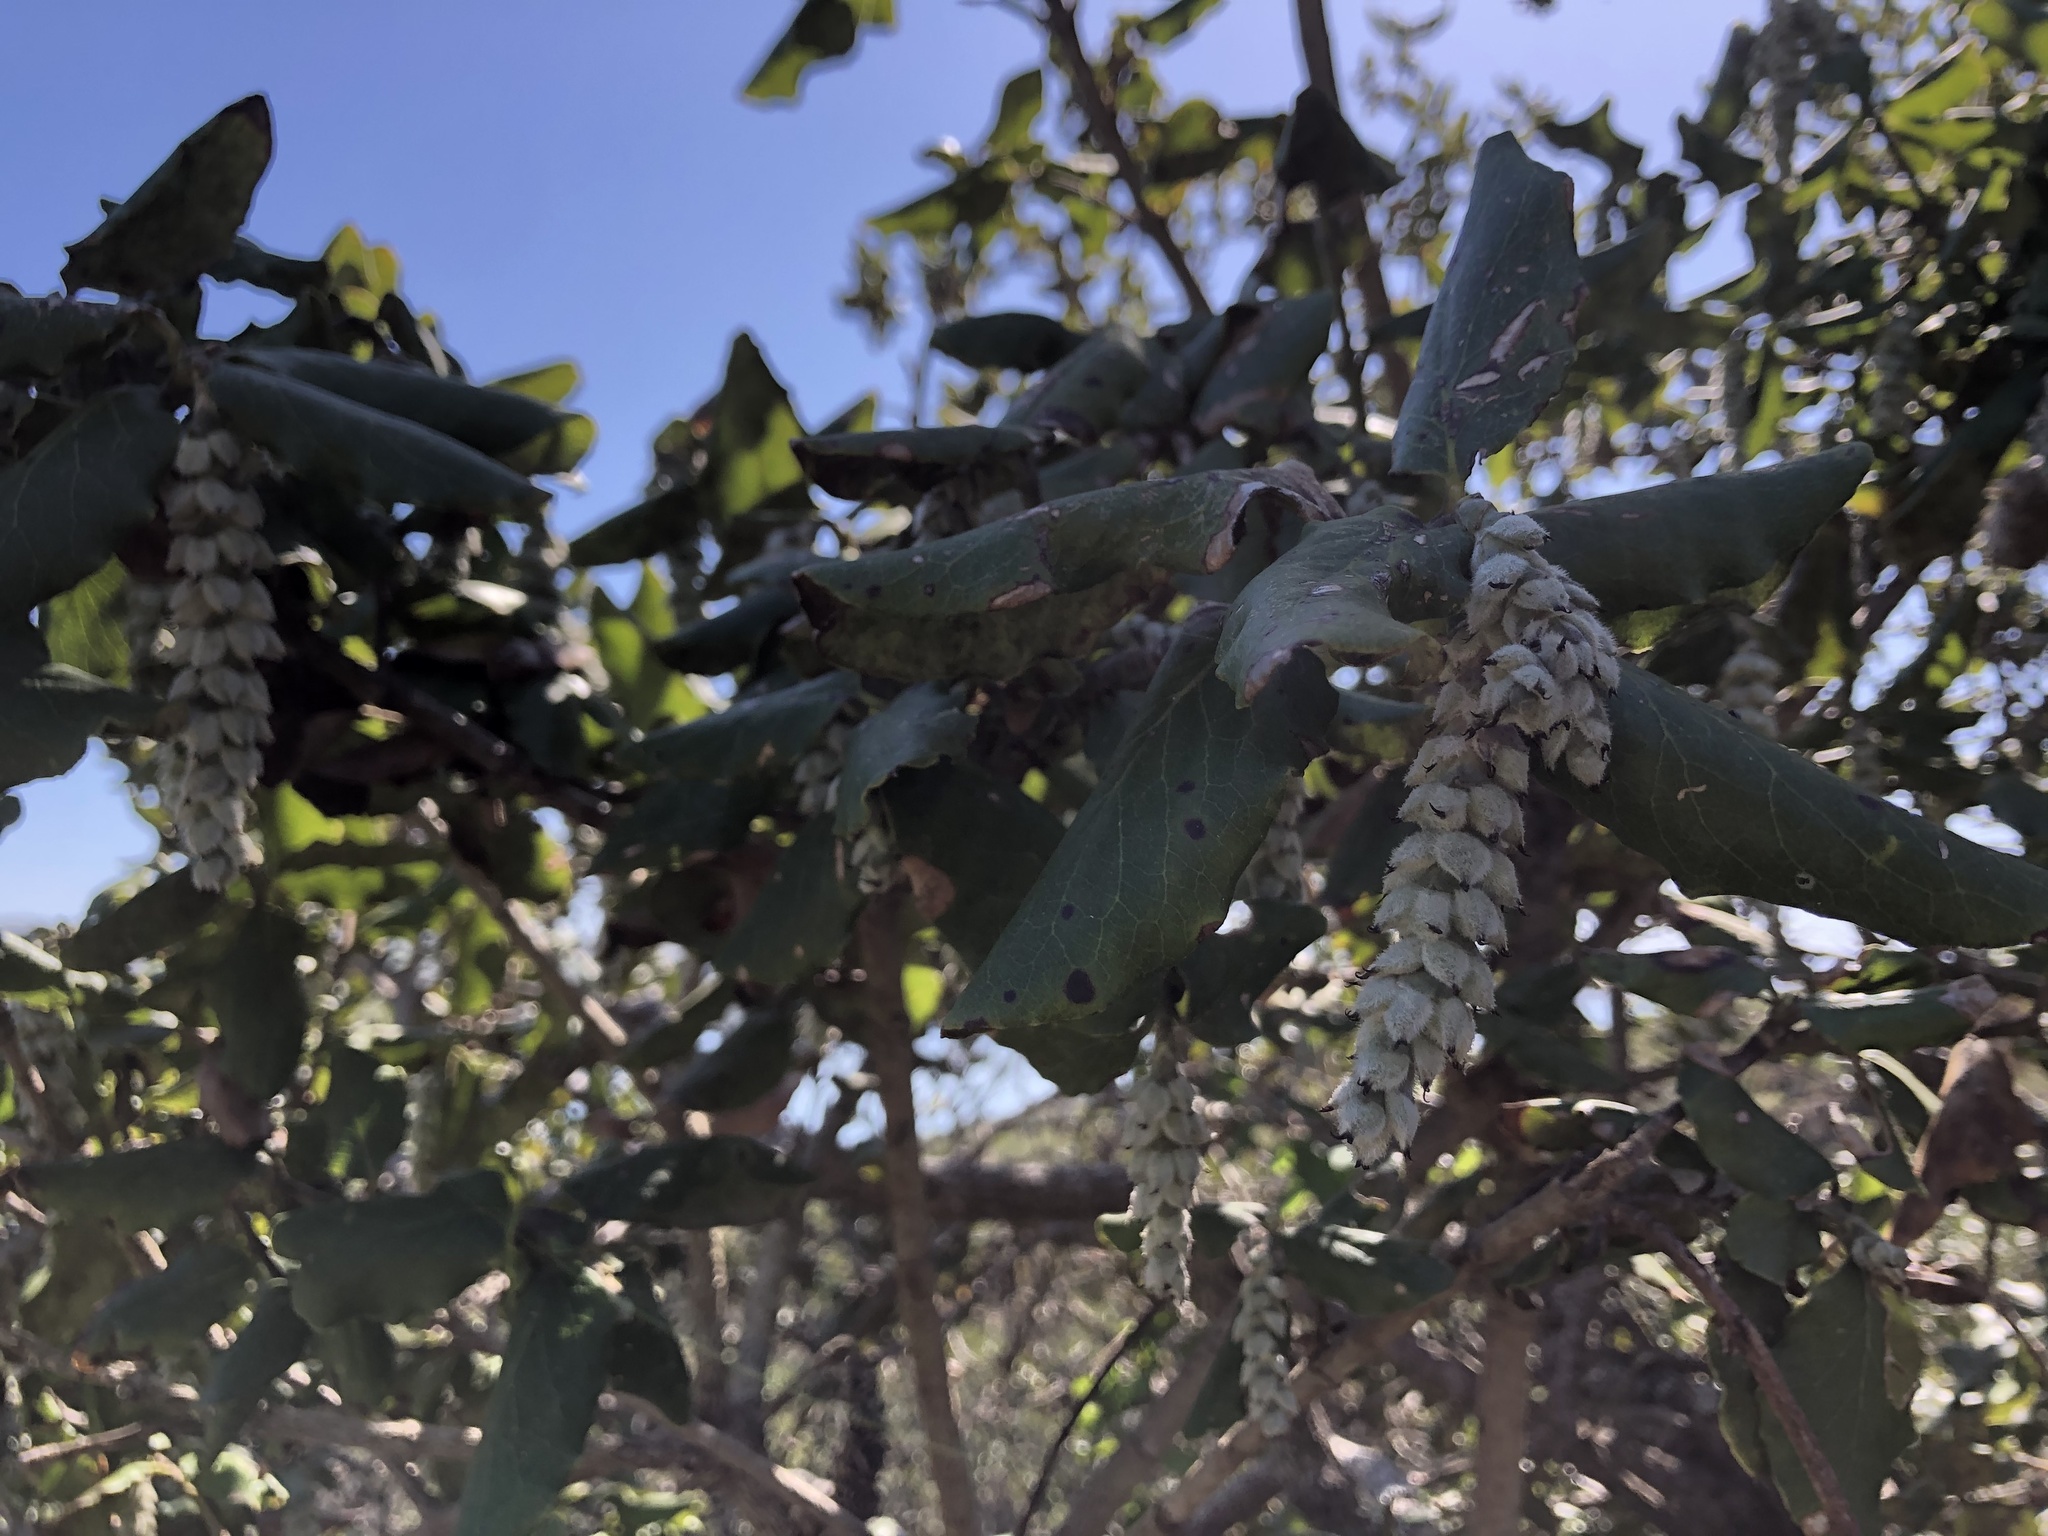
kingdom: Plantae
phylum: Tracheophyta
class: Magnoliopsida
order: Garryales
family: Garryaceae
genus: Garrya
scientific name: Garrya elliptica
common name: Silk-tassel
